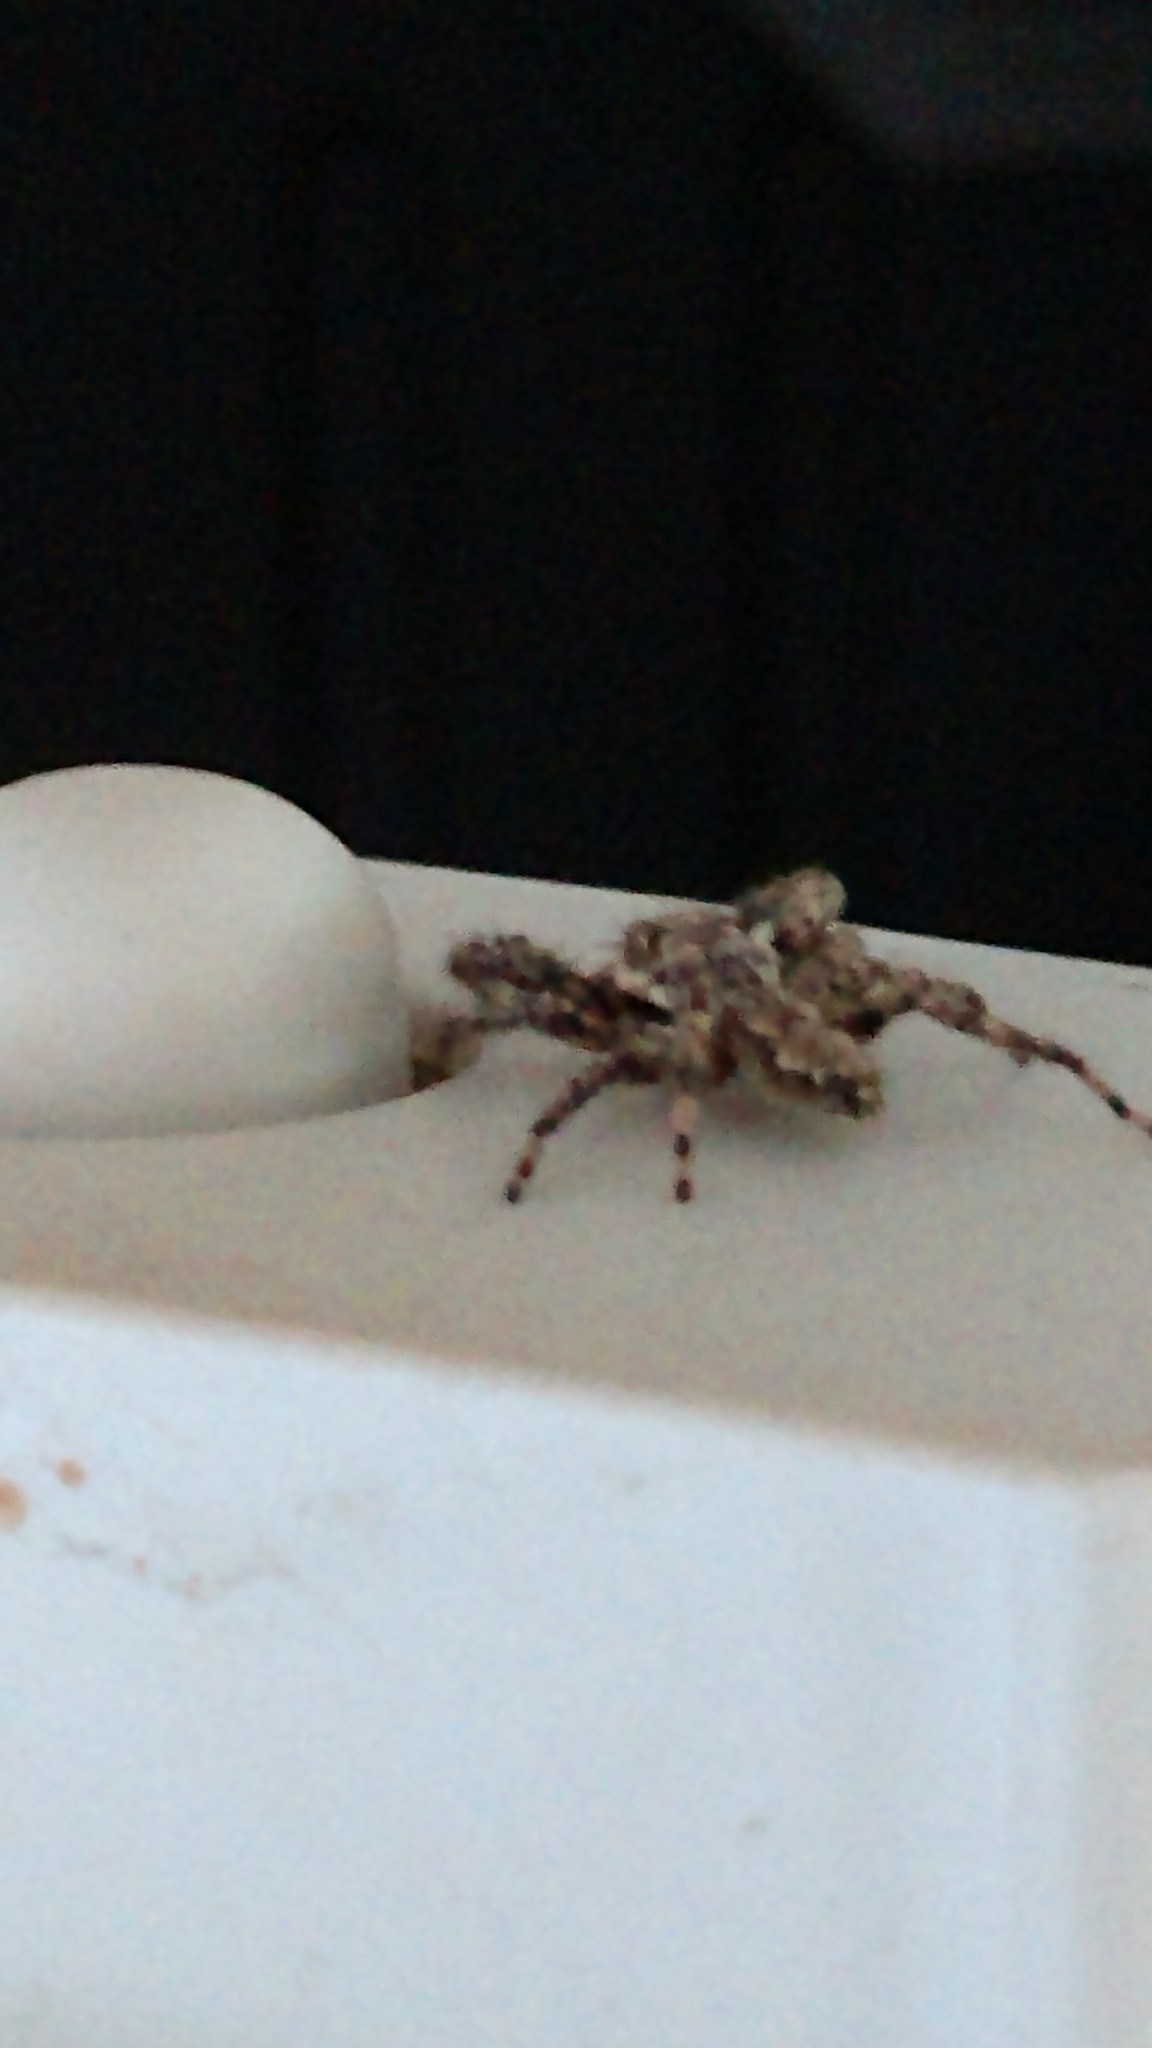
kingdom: Animalia
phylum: Arthropoda
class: Arachnida
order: Araneae
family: Salticidae
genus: Platycryptus
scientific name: Platycryptus undatus
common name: Tan jumping spider
